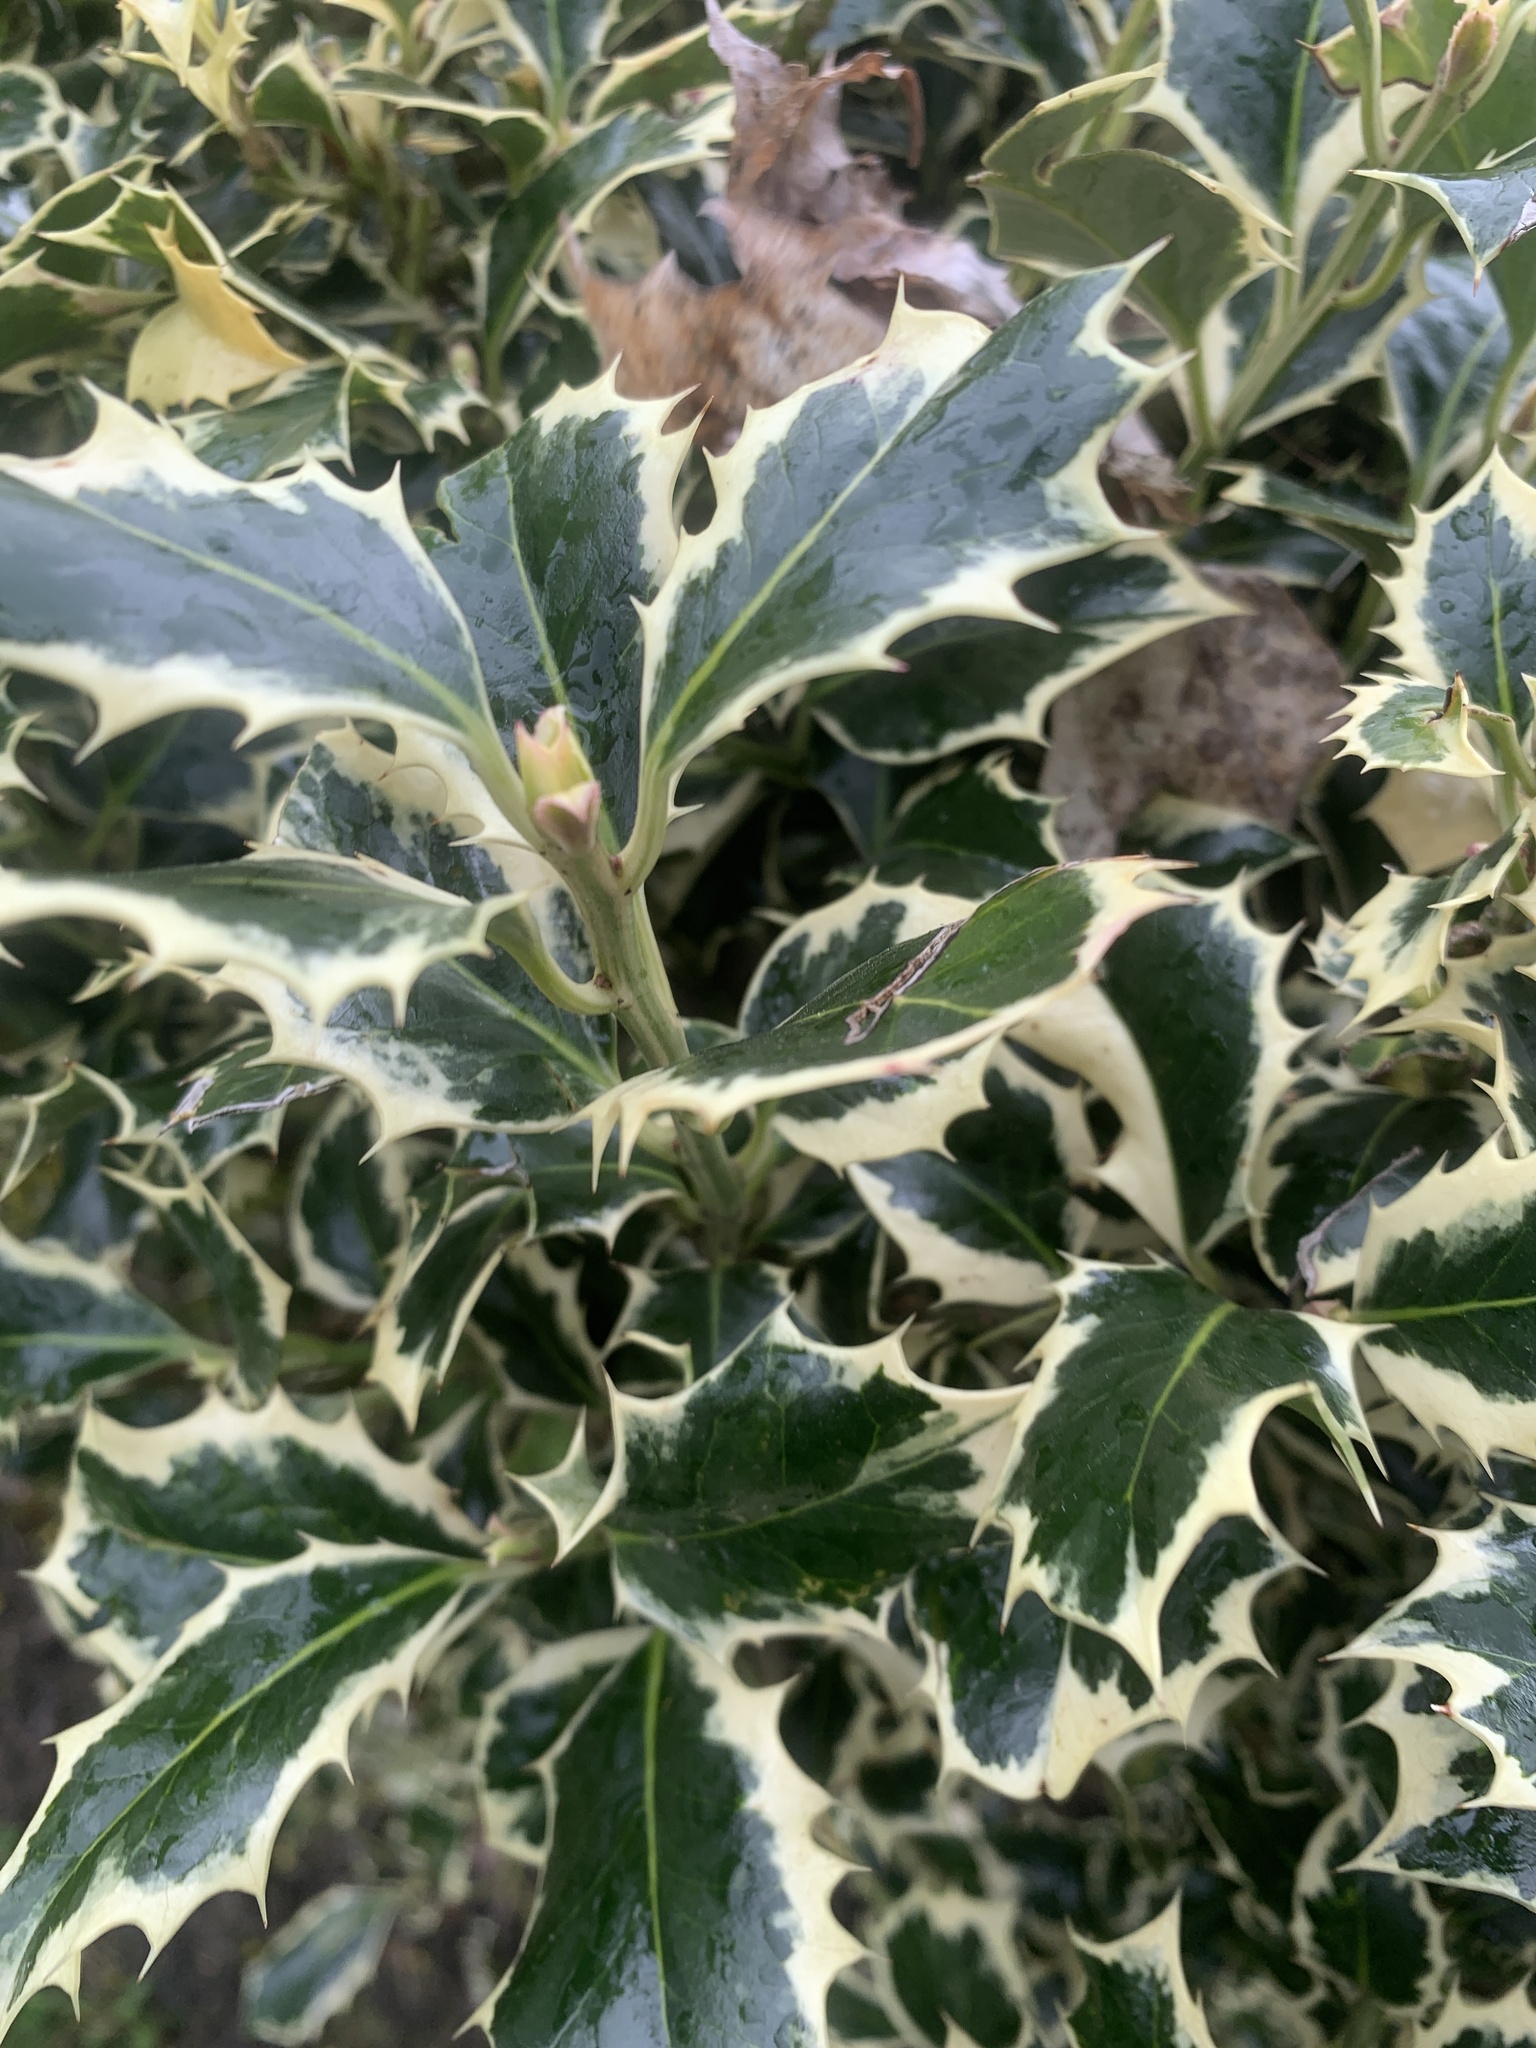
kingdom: Plantae
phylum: Tracheophyta
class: Magnoliopsida
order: Aquifoliales
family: Aquifoliaceae
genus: Ilex
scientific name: Ilex aquifolium
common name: English holly
